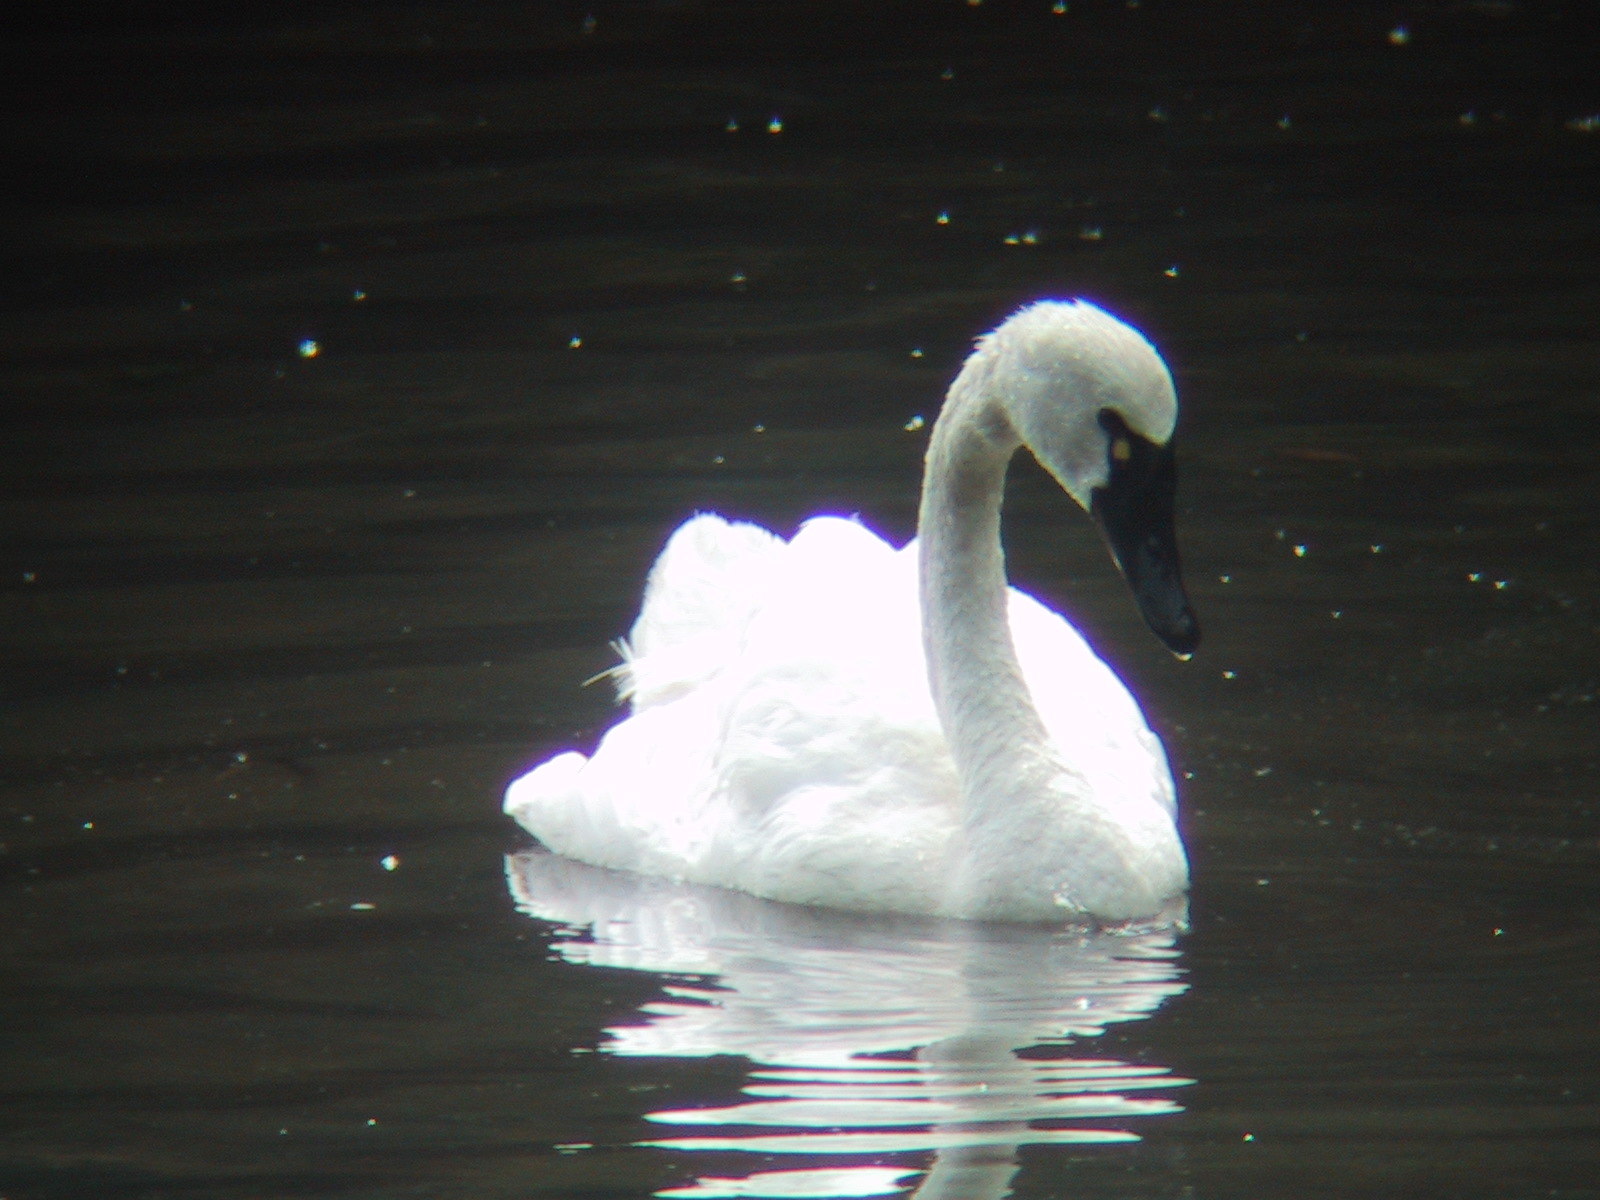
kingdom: Animalia
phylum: Chordata
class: Aves
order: Anseriformes
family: Anatidae
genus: Cygnus
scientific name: Cygnus columbianus
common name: Tundra swan
